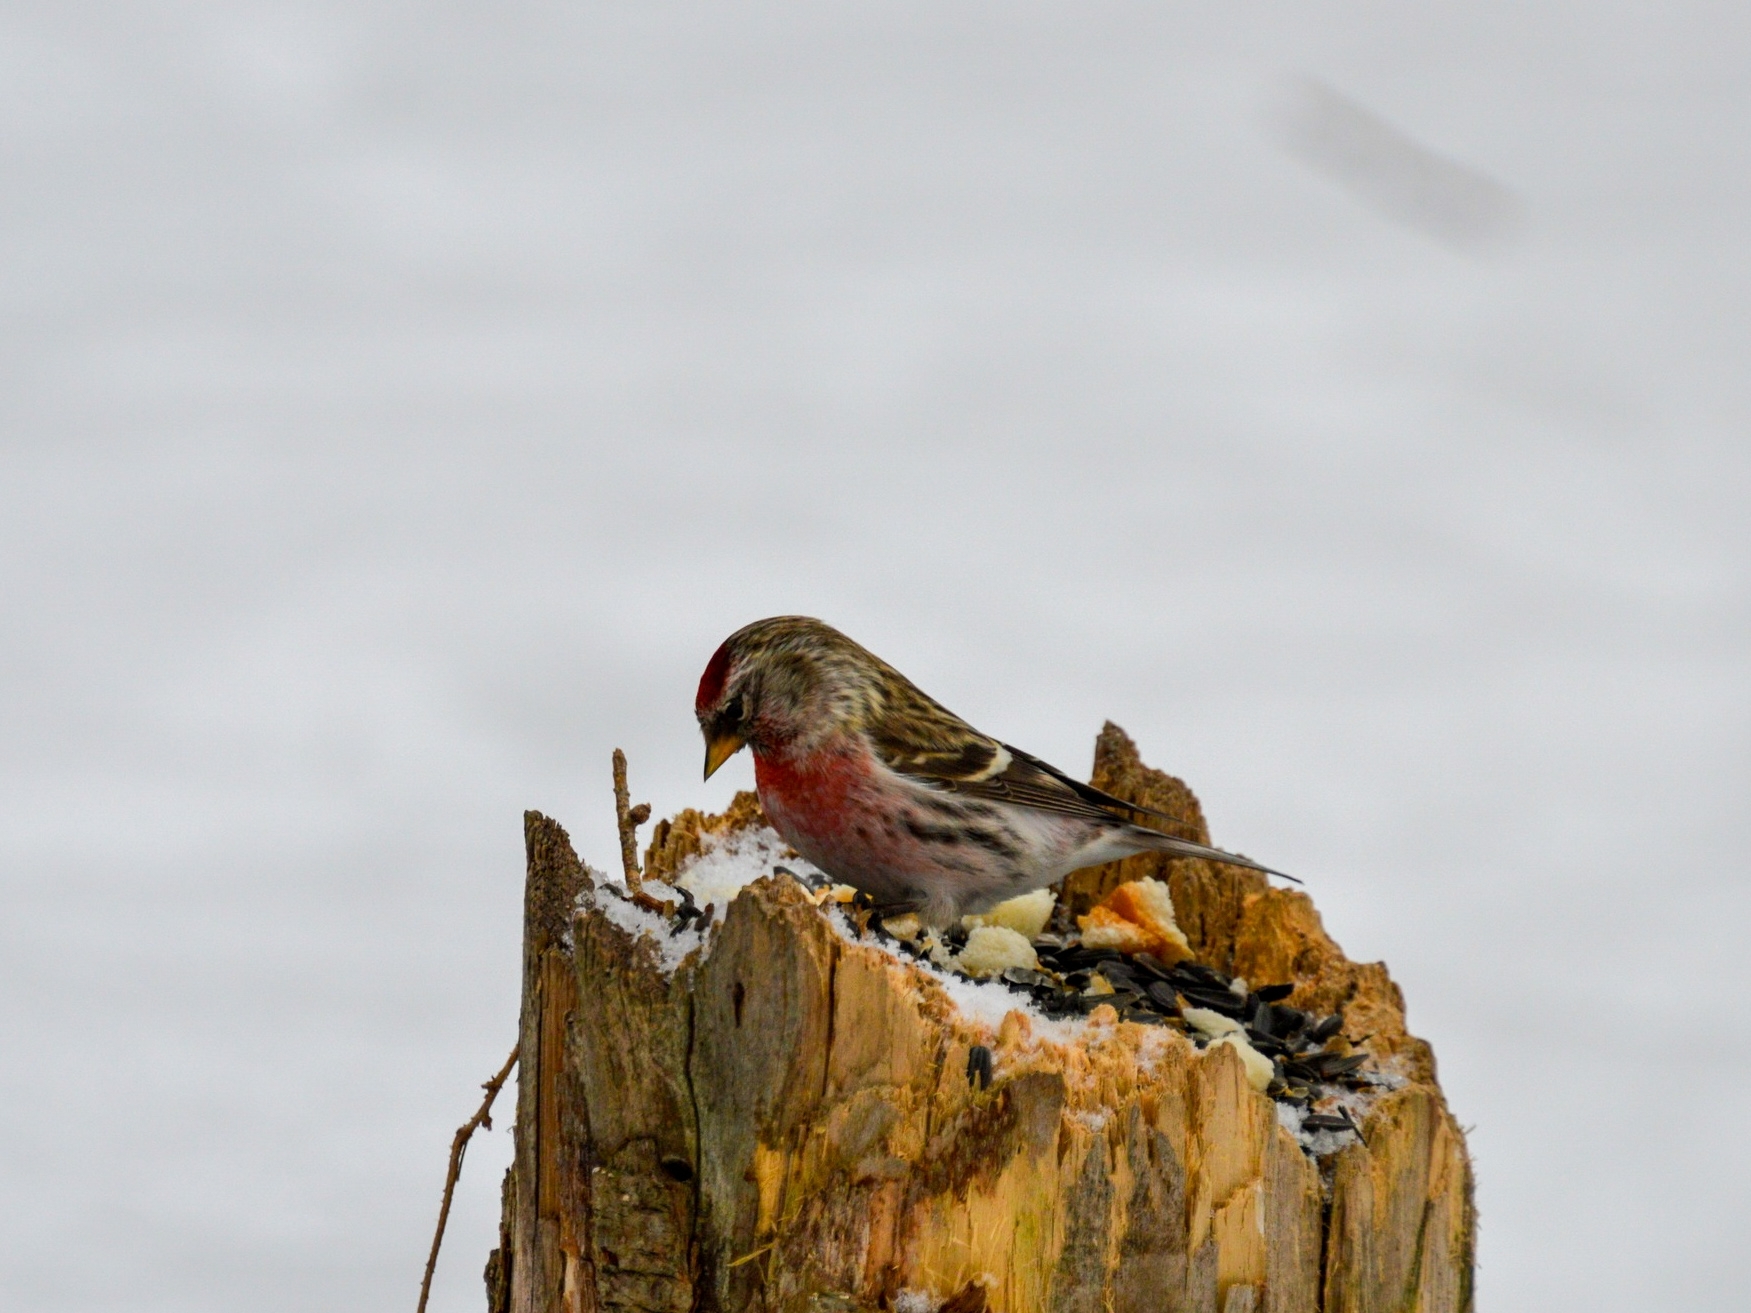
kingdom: Animalia
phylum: Chordata
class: Aves
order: Passeriformes
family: Fringillidae
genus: Acanthis
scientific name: Acanthis flammea
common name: Common redpoll
